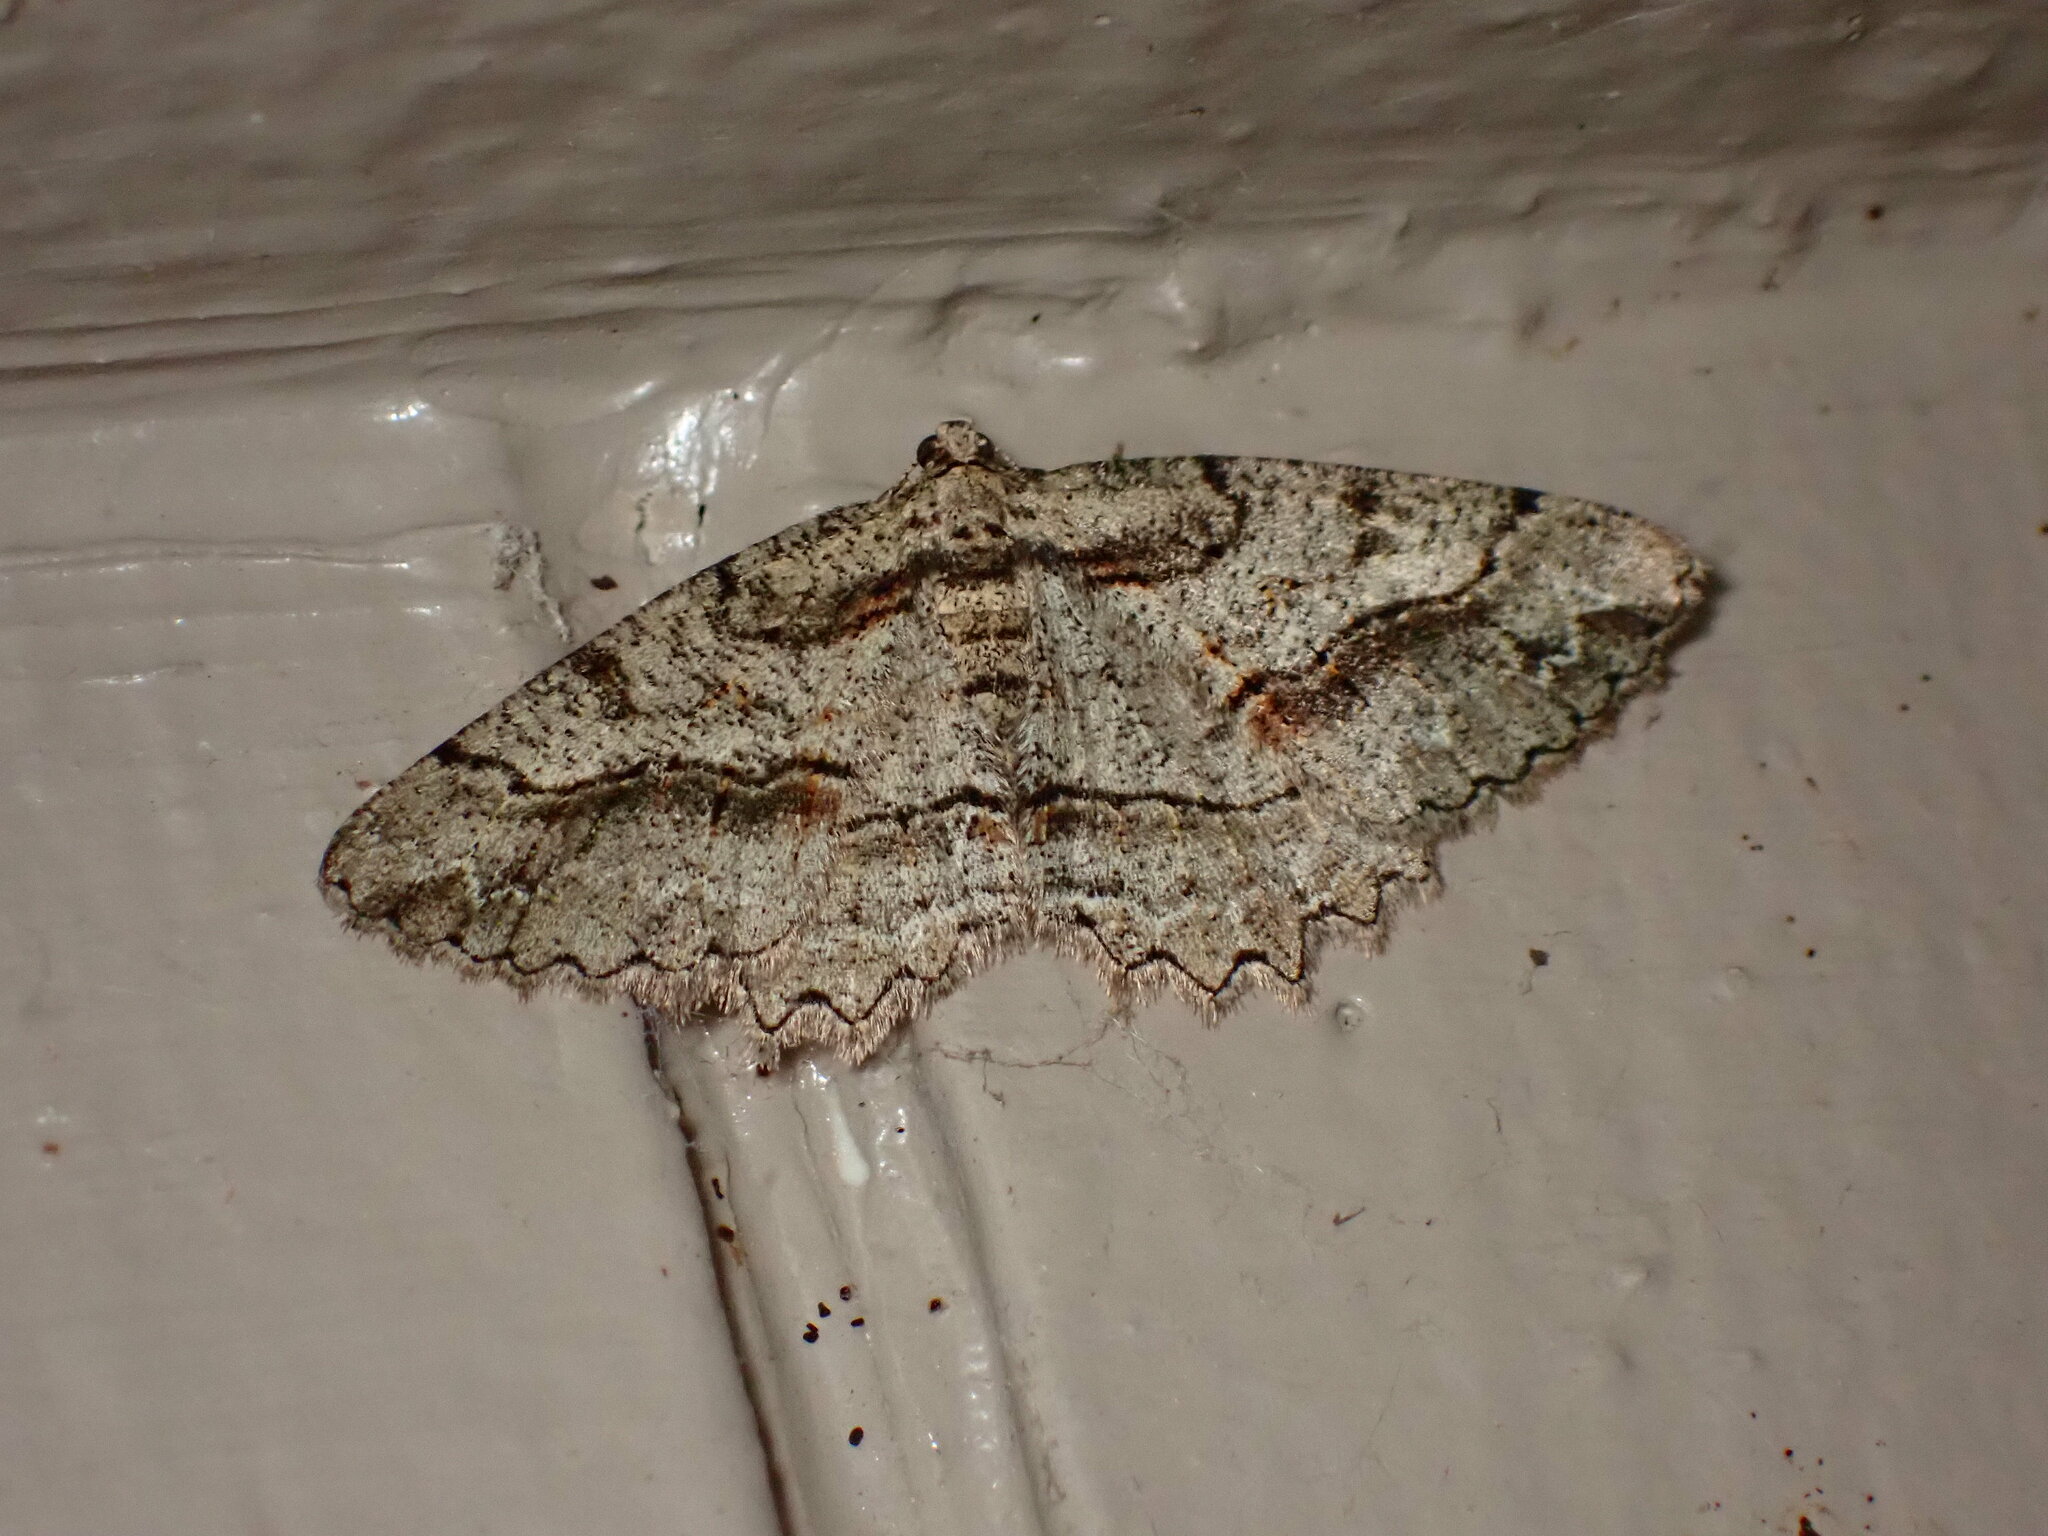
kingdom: Animalia
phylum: Arthropoda
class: Insecta
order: Lepidoptera
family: Geometridae
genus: Neoalcis
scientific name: Neoalcis californiaria
